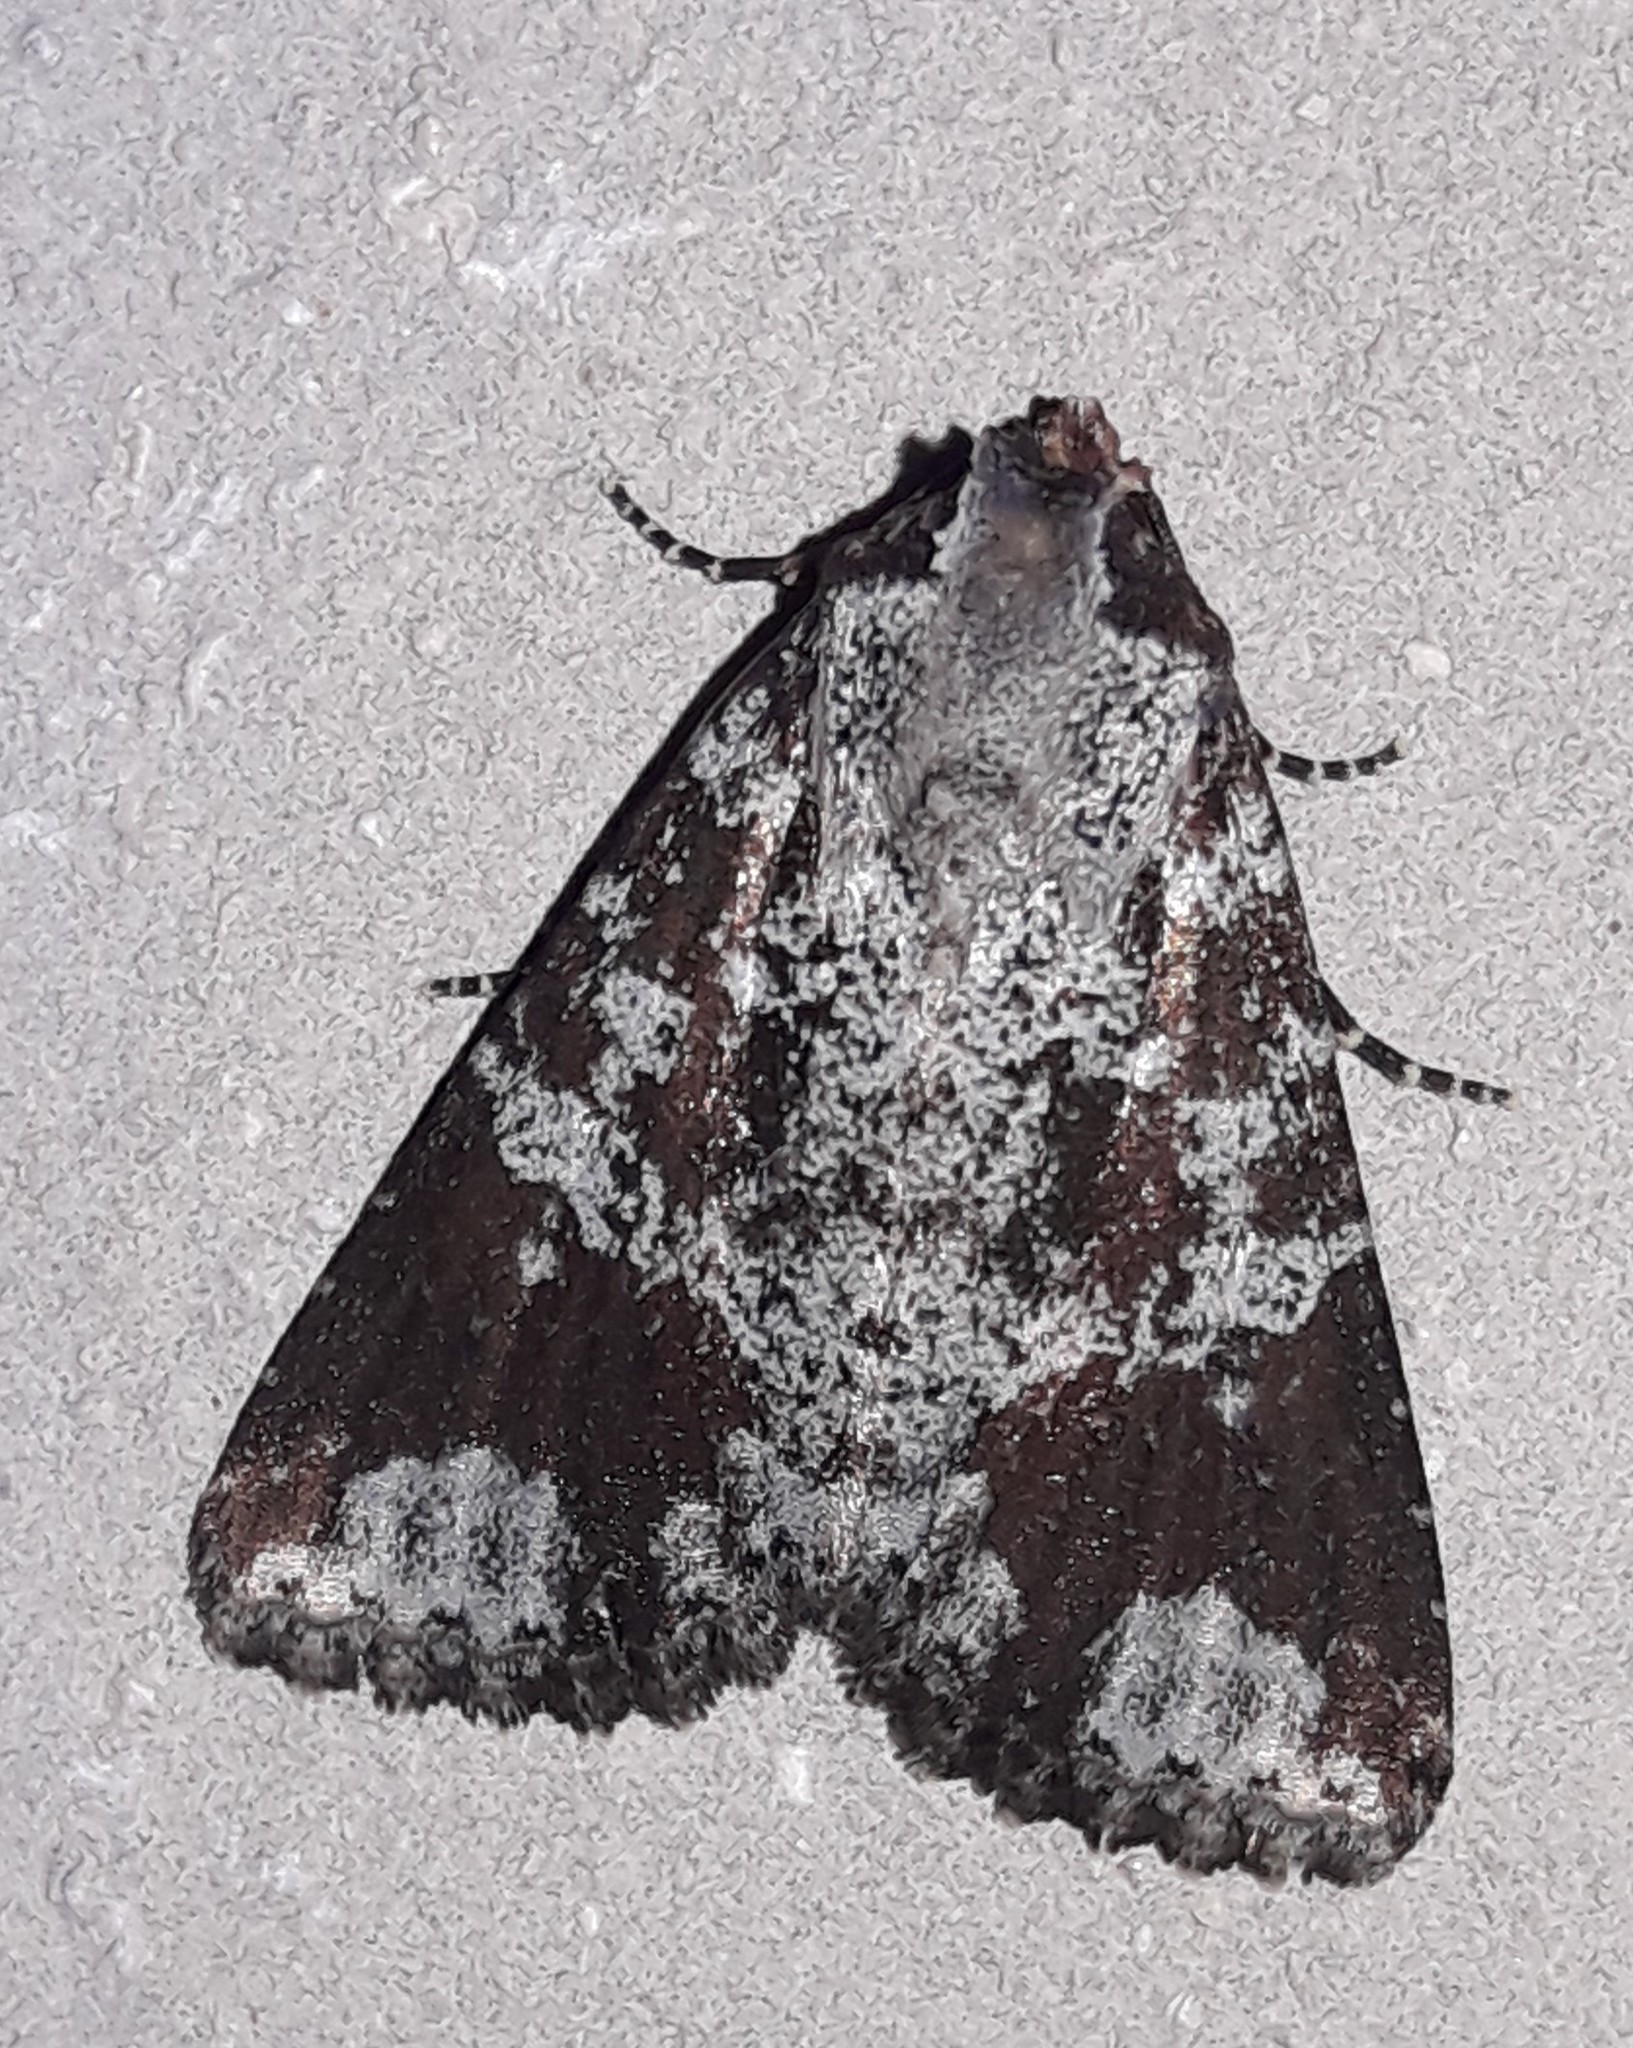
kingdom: Animalia
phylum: Arthropoda
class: Insecta
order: Lepidoptera
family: Noctuidae
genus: Condica
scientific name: Condica cupentia
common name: Splotched groundling
